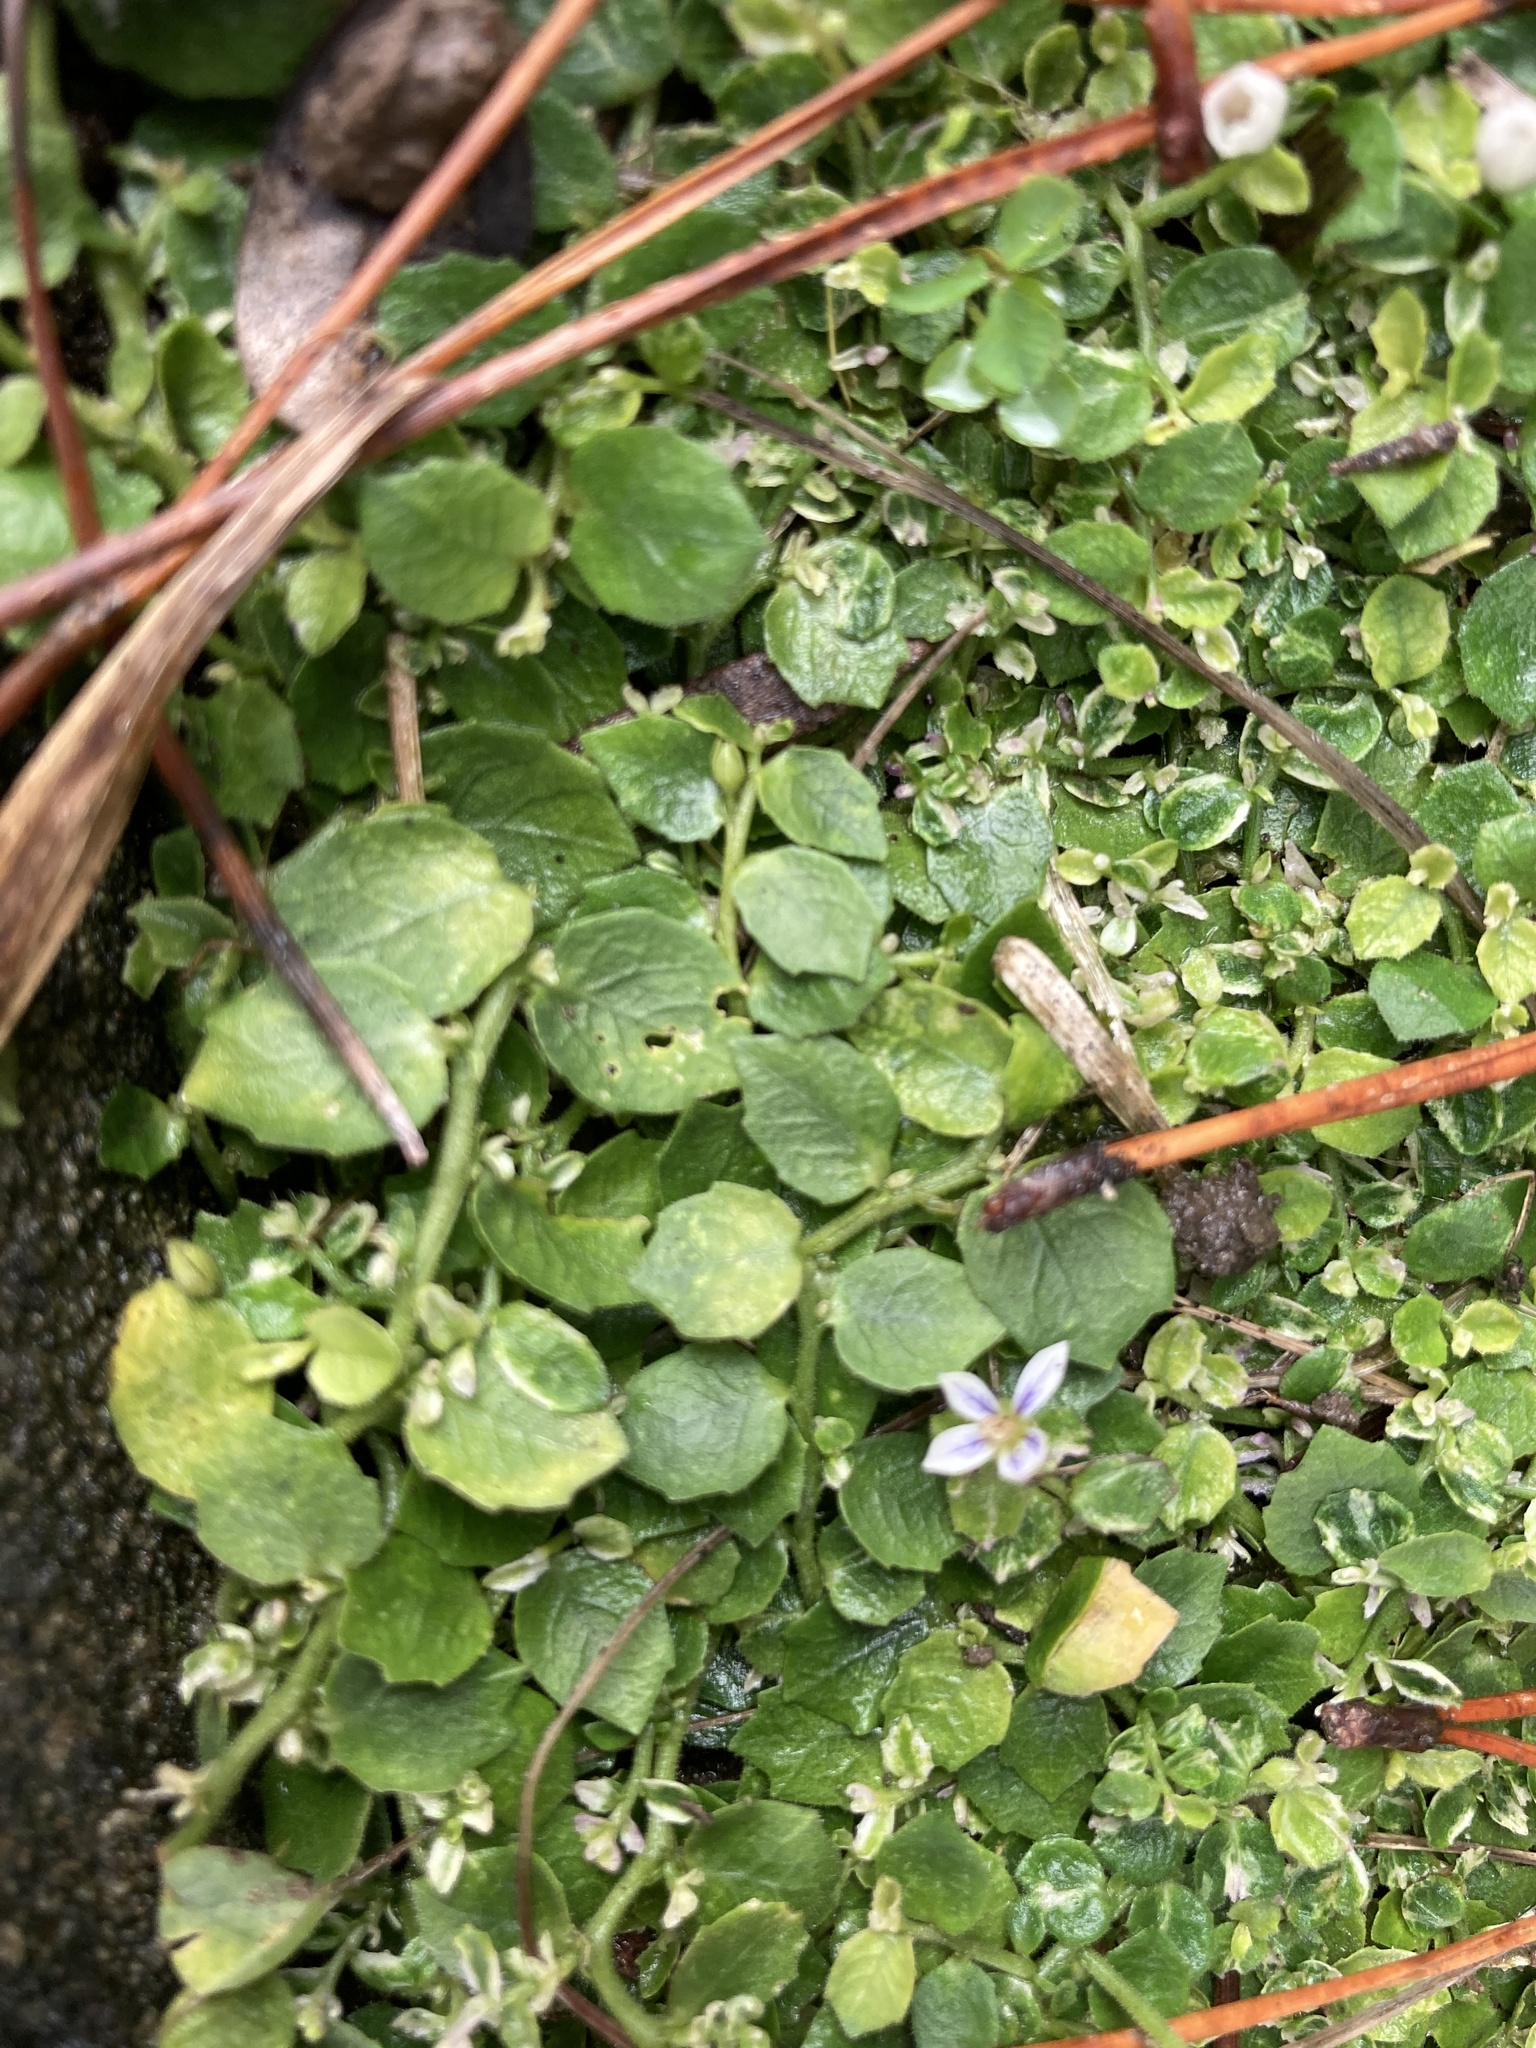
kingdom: Plantae
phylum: Tracheophyta
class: Magnoliopsida
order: Asterales
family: Campanulaceae
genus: Lobelia
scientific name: Lobelia pedunculata
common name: Matted pratia
